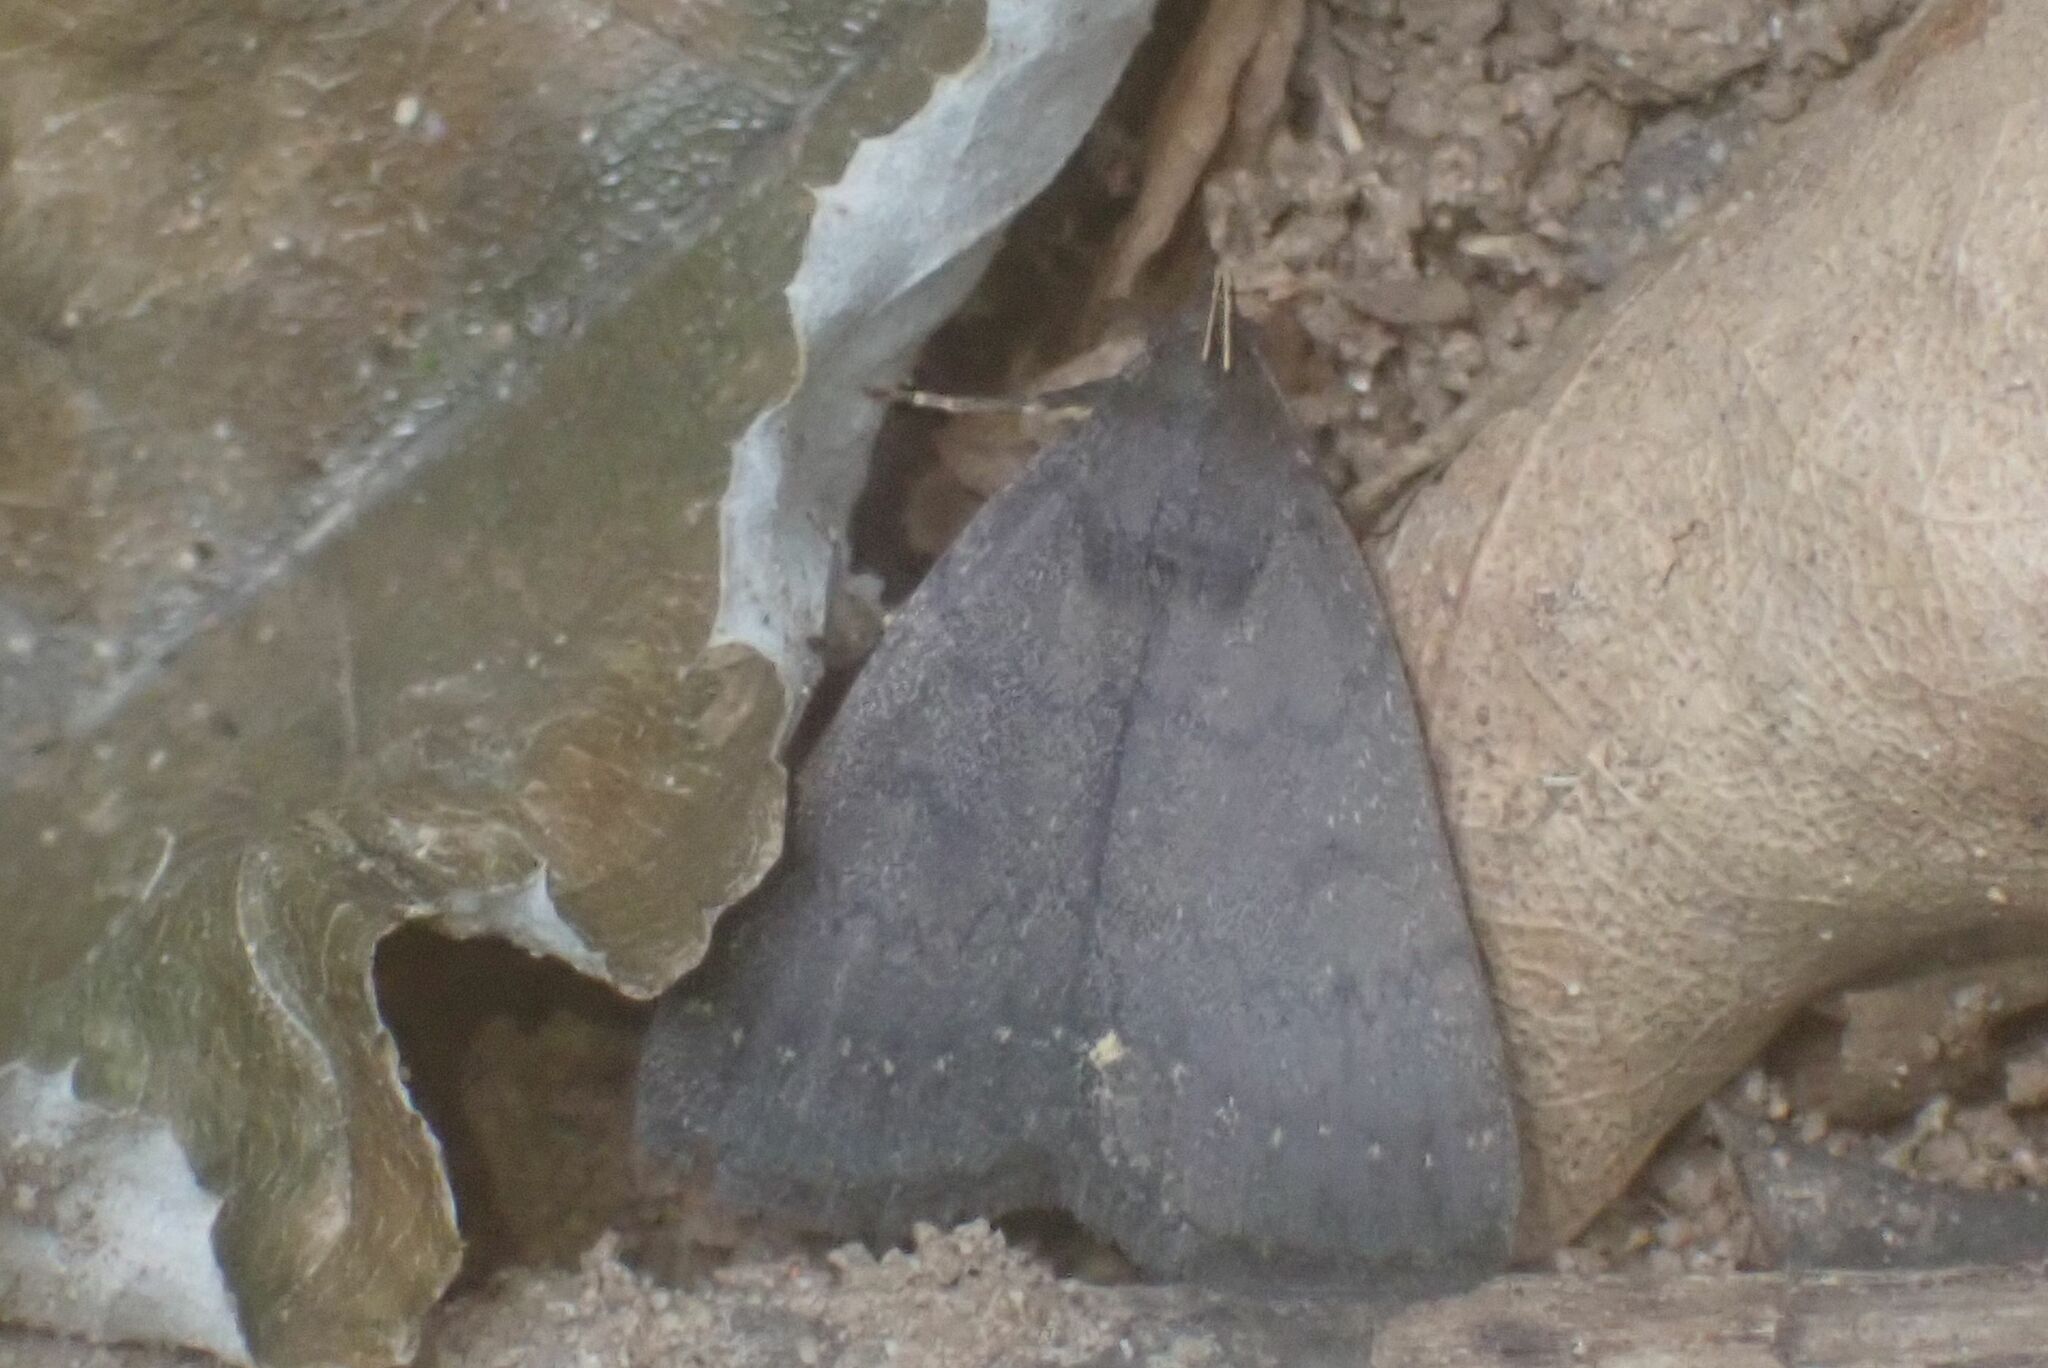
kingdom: Animalia
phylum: Arthropoda
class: Insecta
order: Lepidoptera
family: Erebidae
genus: Nodaria
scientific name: Nodaria nodosalis
